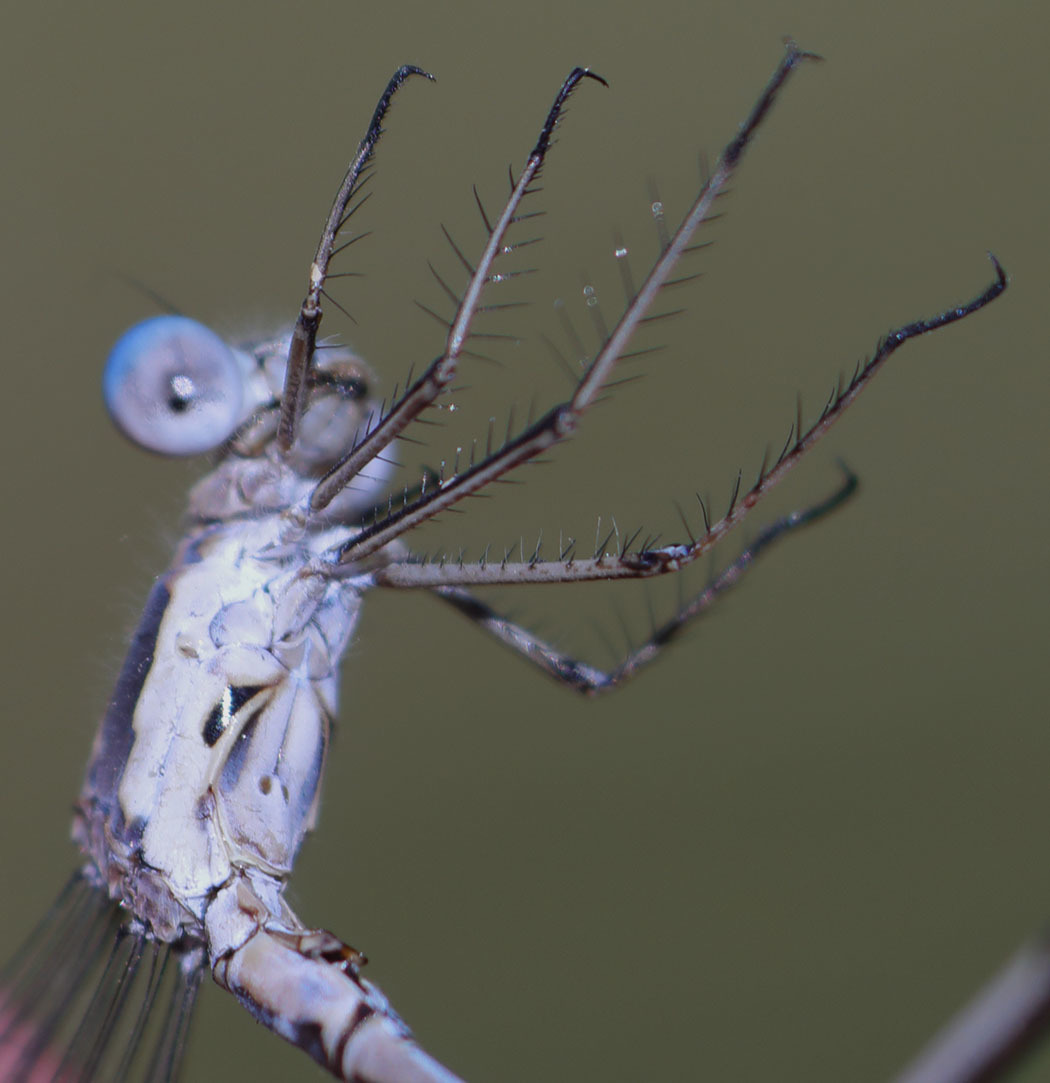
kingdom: Animalia
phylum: Arthropoda
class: Insecta
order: Odonata
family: Lestidae
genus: Lestes
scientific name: Lestes congener
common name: Spotted spreadwing
